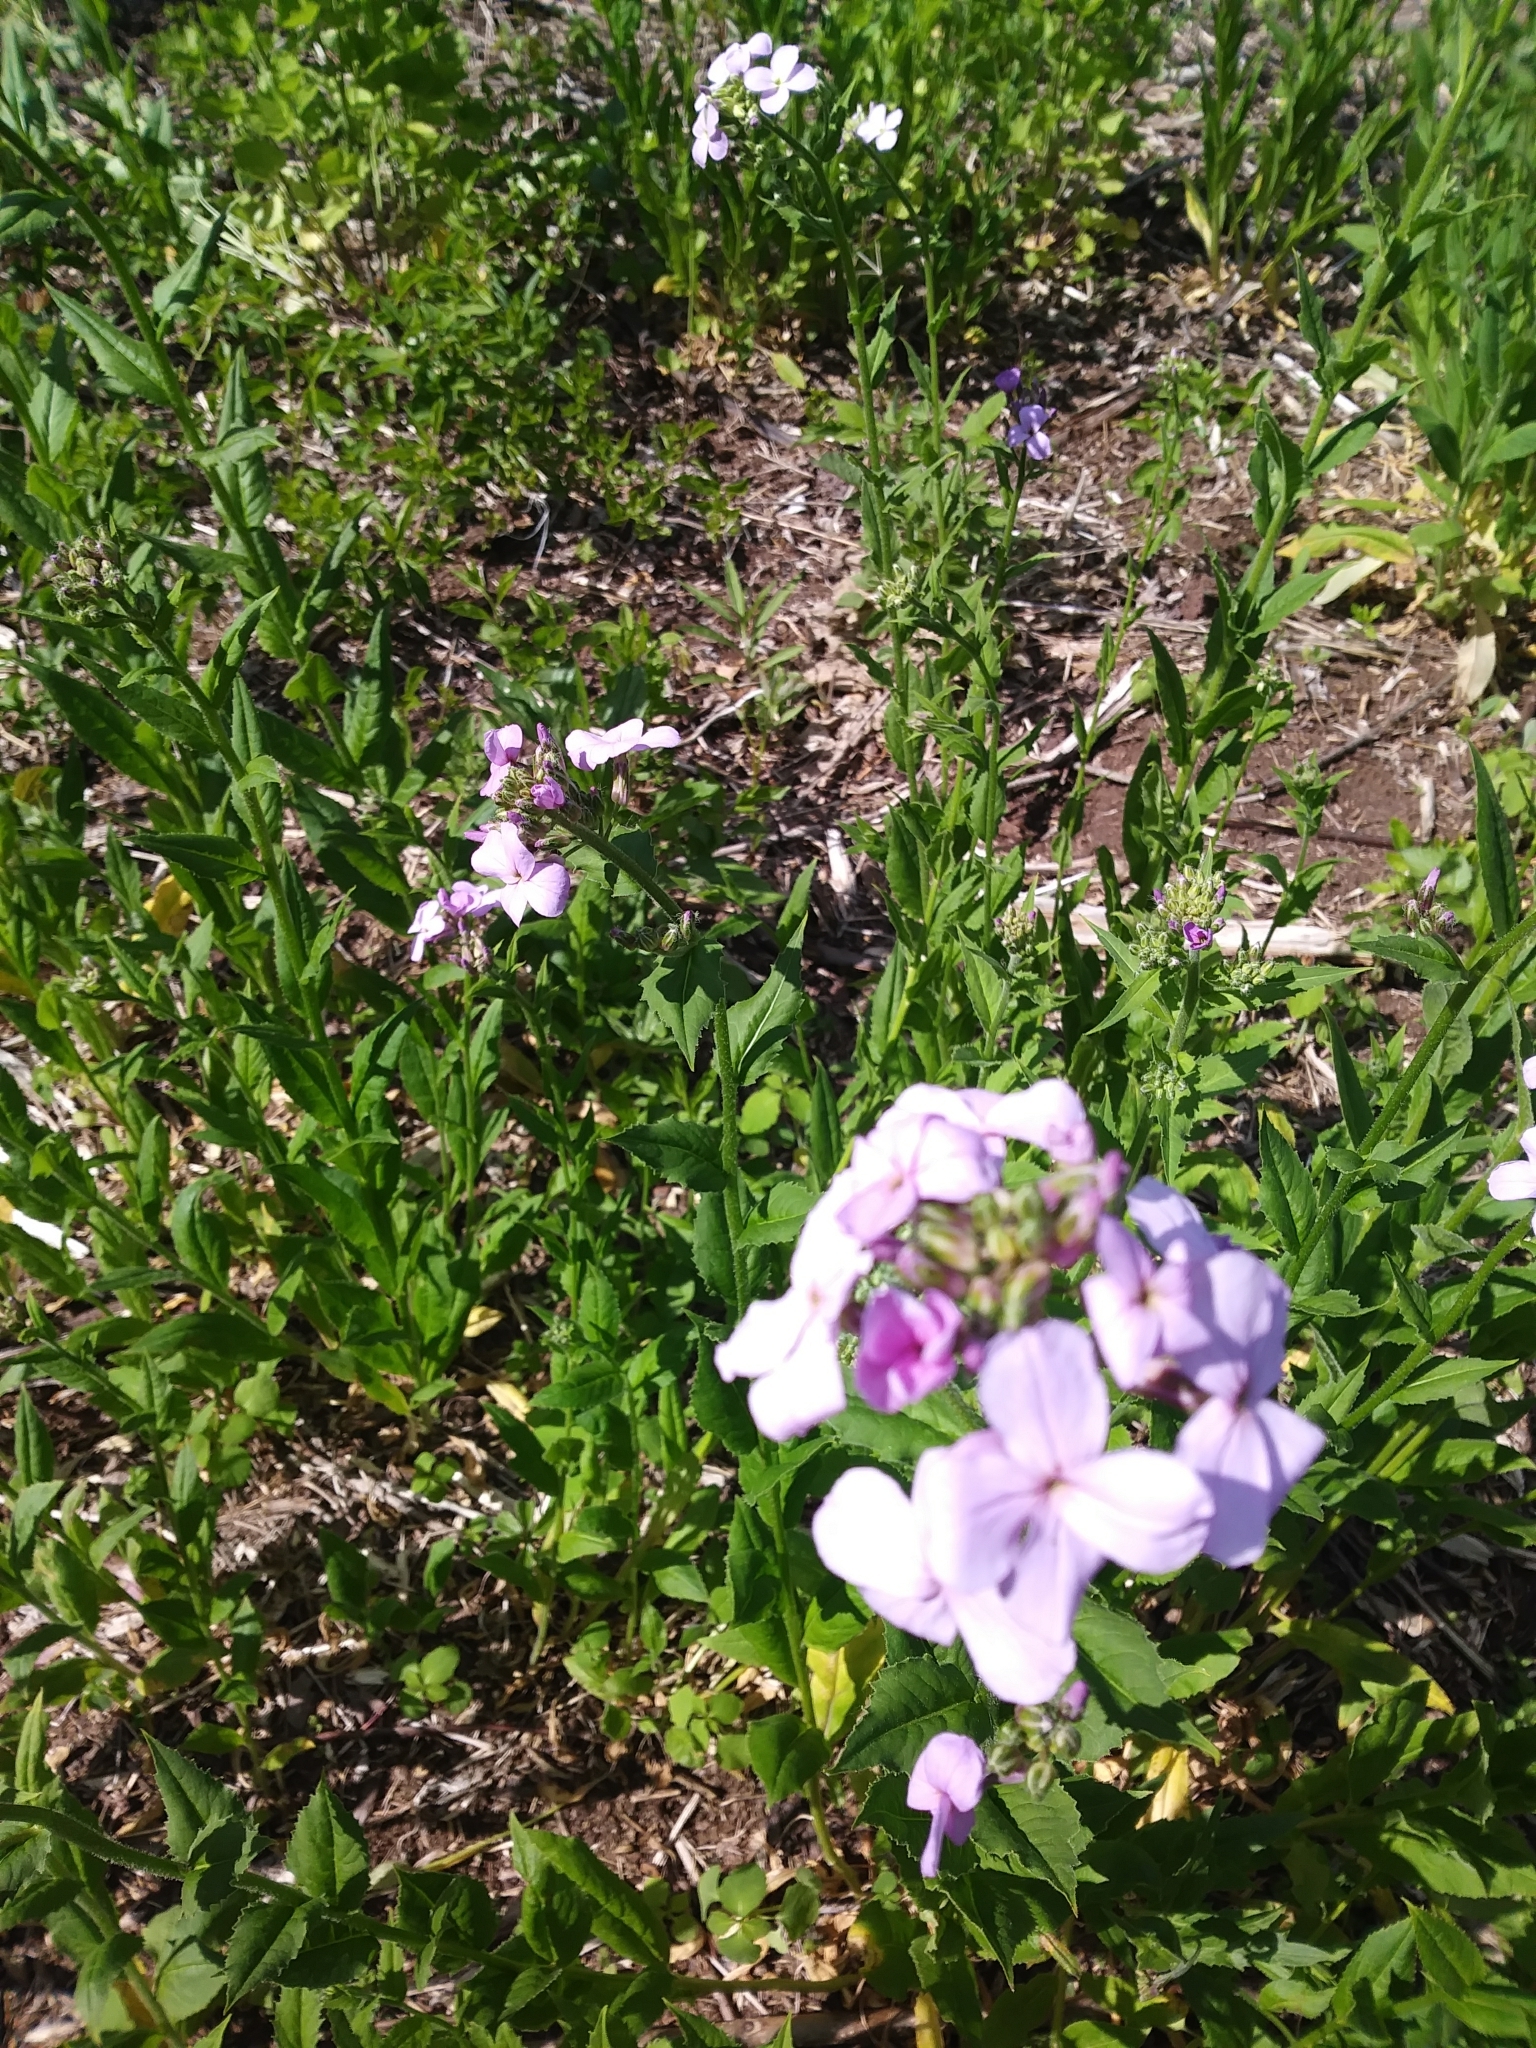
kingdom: Plantae
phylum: Tracheophyta
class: Magnoliopsida
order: Brassicales
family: Brassicaceae
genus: Hesperis
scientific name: Hesperis matronalis
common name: Dame's-violet
